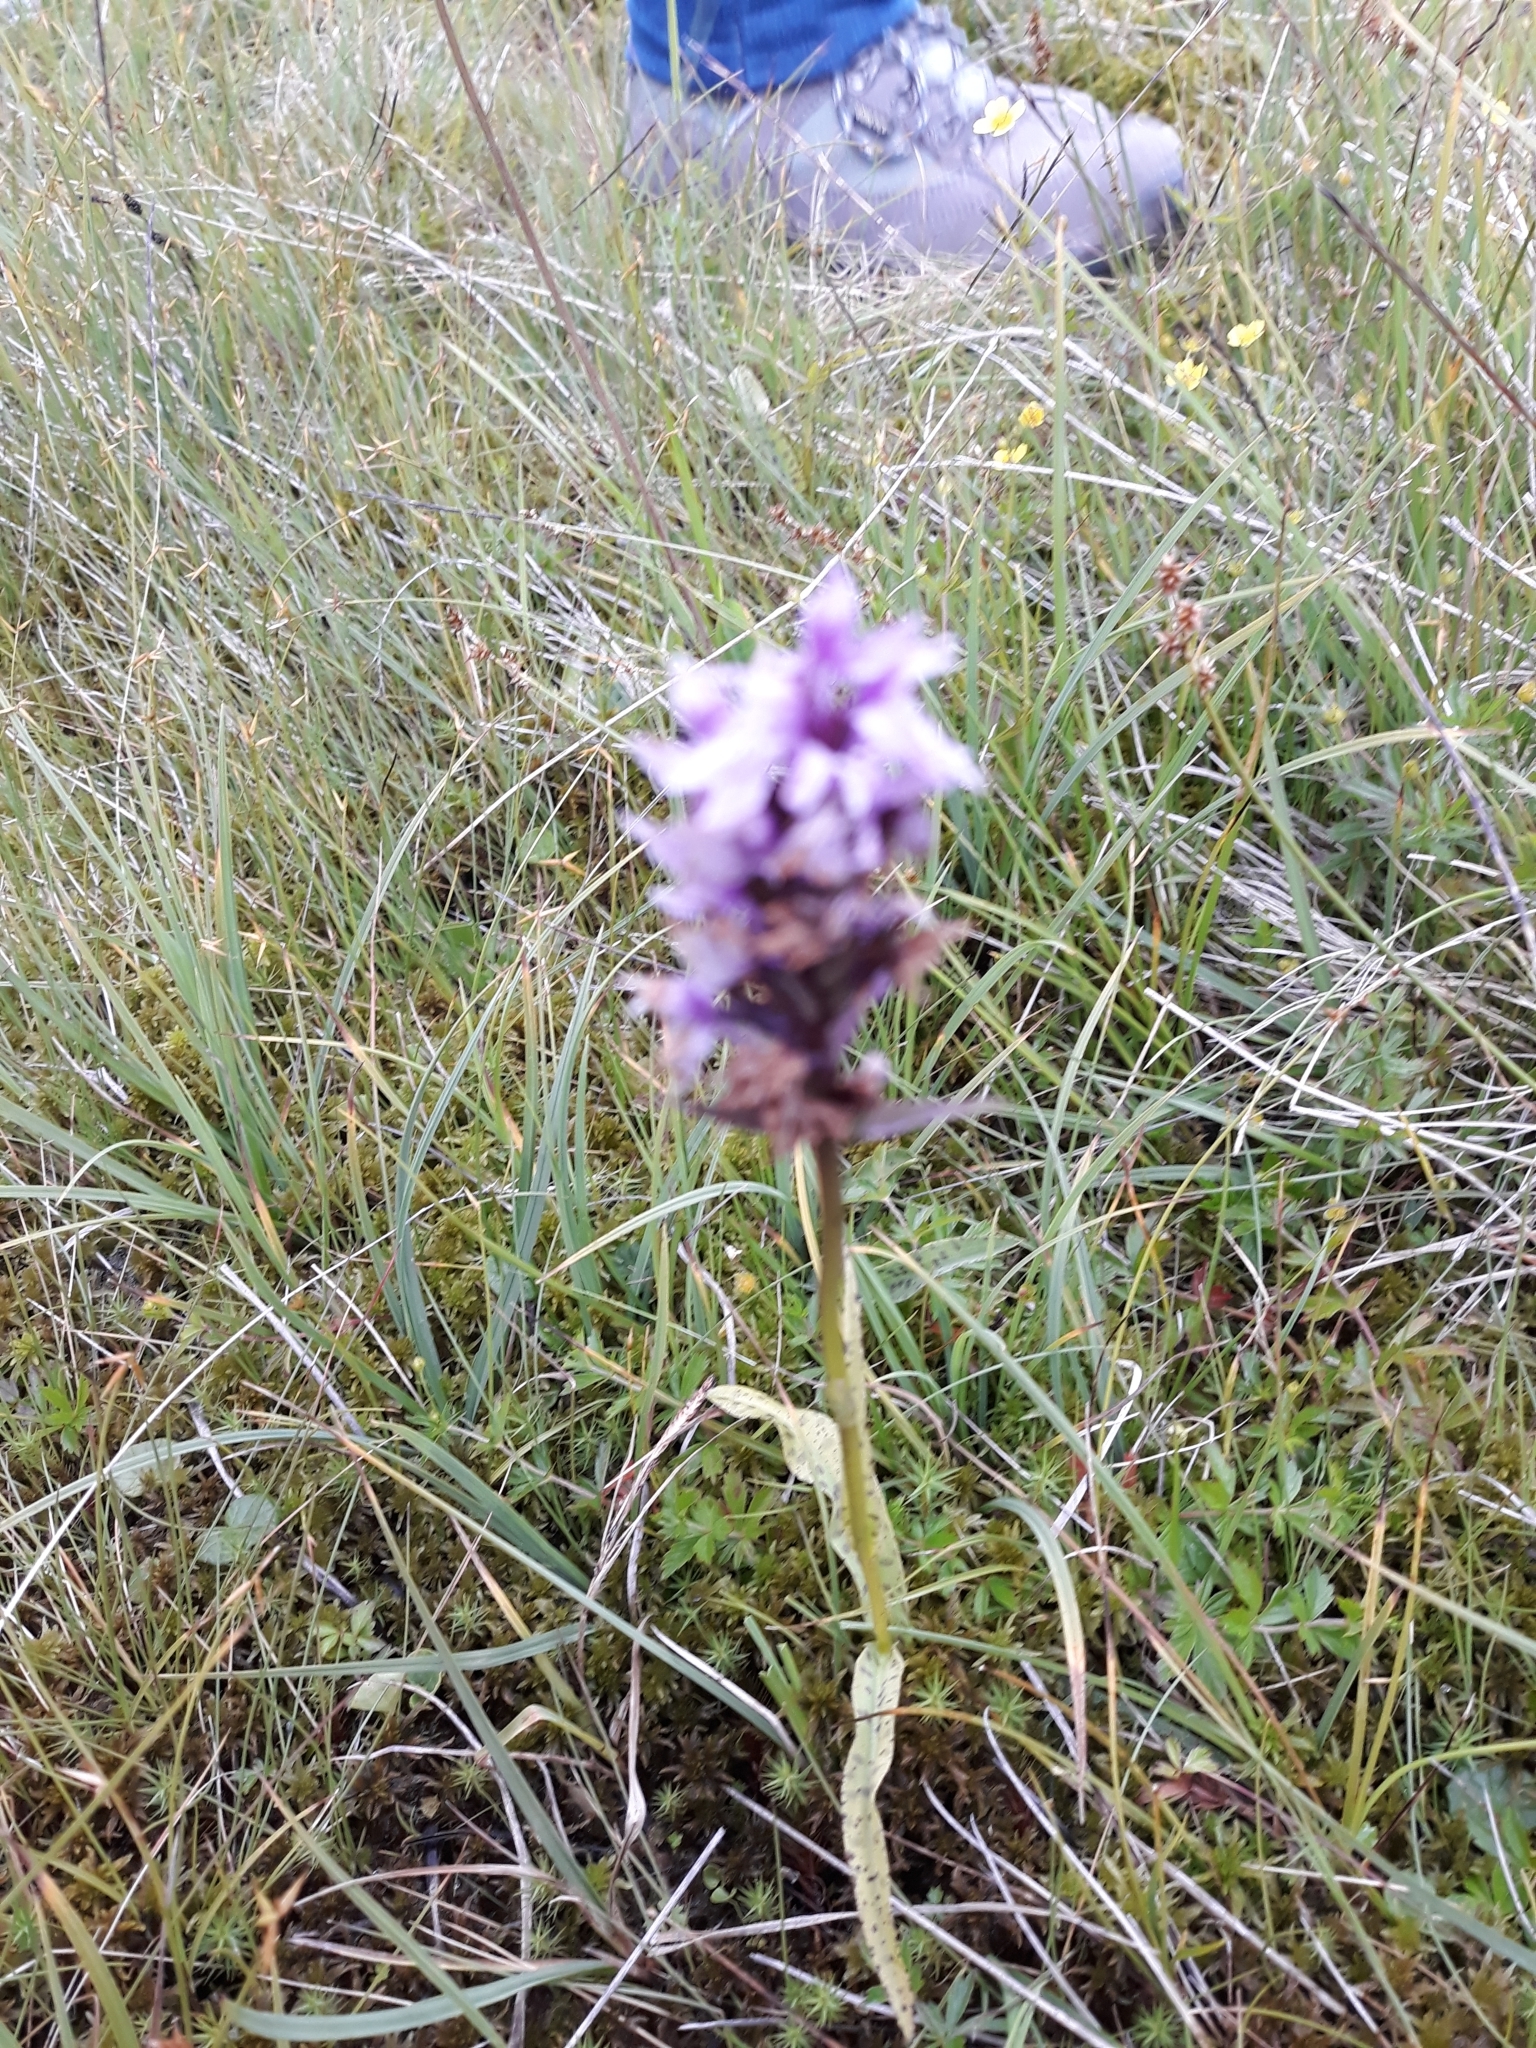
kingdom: Plantae
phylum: Tracheophyta
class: Liliopsida
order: Asparagales
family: Orchidaceae
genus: Dactylorhiza
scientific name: Dactylorhiza maculata
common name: Heath spotted-orchid
